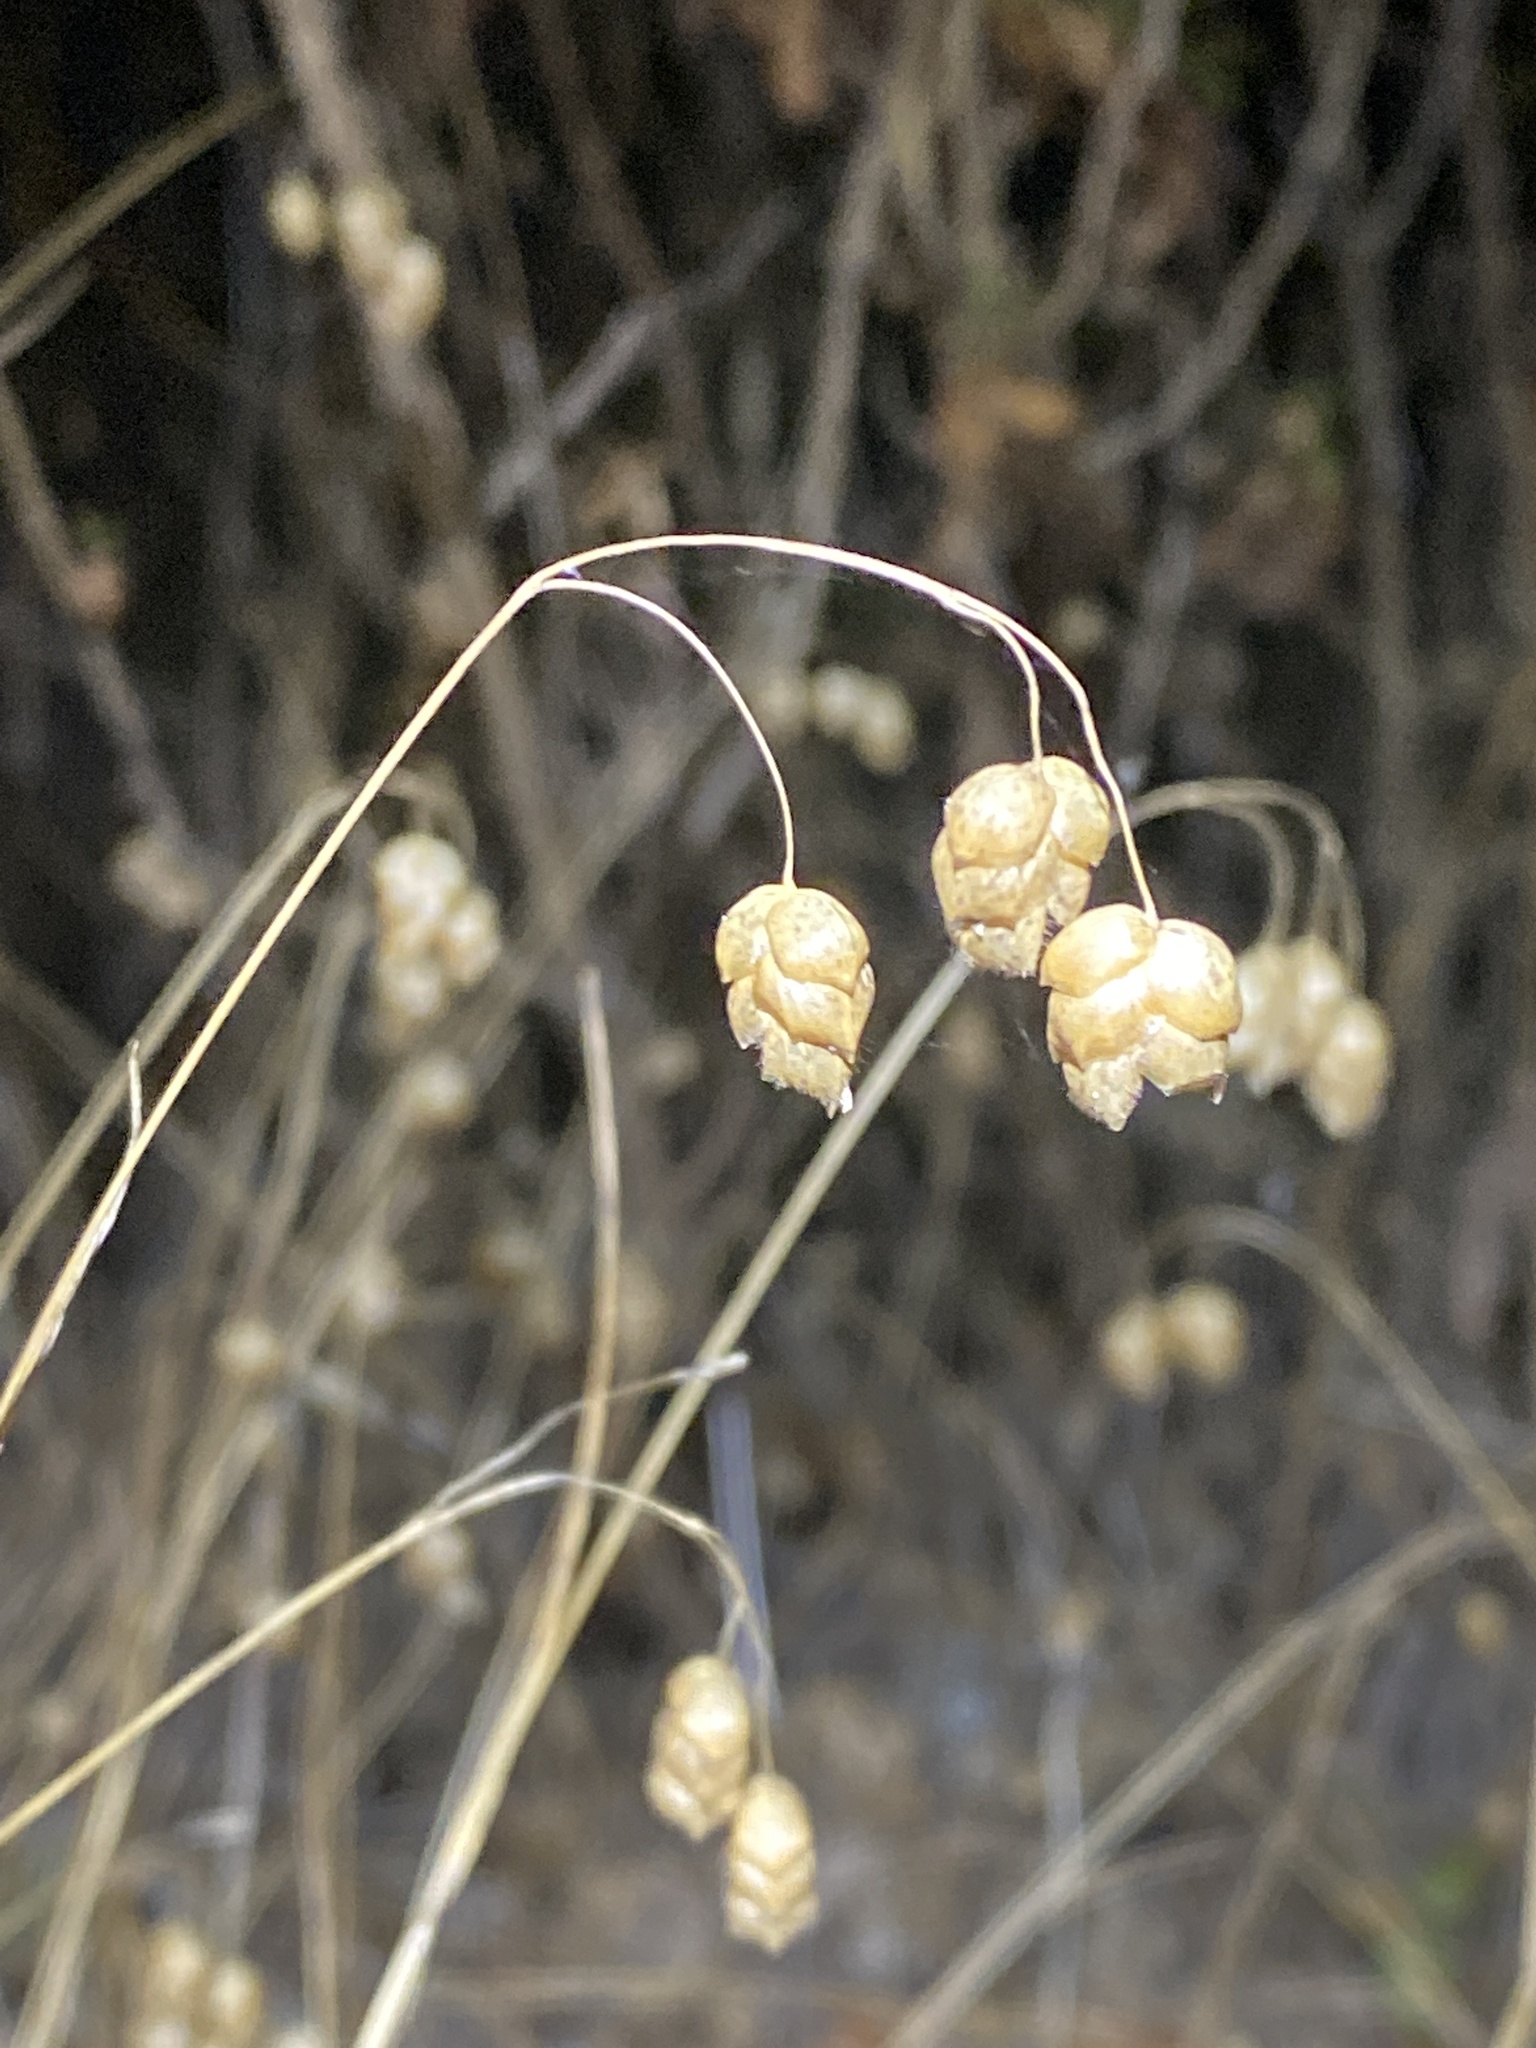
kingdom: Plantae
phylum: Tracheophyta
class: Liliopsida
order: Poales
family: Poaceae
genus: Briza
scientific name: Briza maxima
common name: Big quakinggrass
